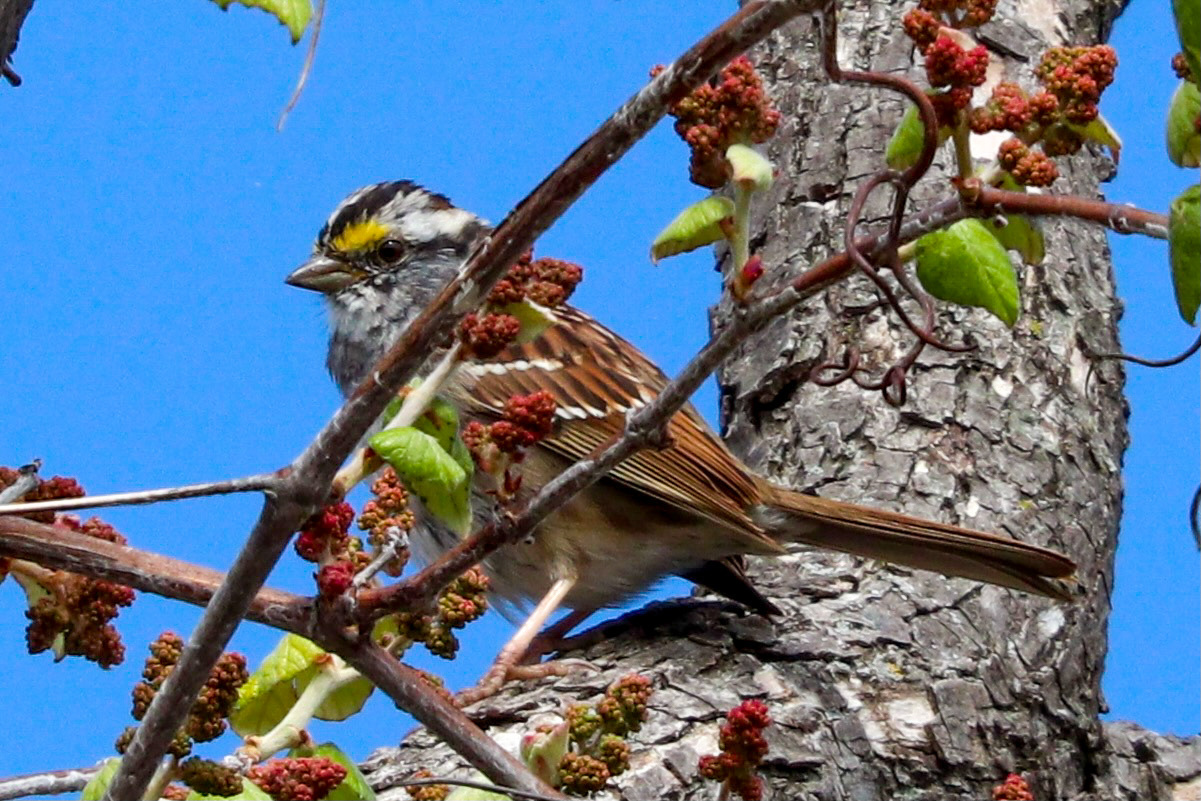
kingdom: Animalia
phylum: Chordata
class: Aves
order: Passeriformes
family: Passerellidae
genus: Zonotrichia
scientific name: Zonotrichia albicollis
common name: White-throated sparrow
